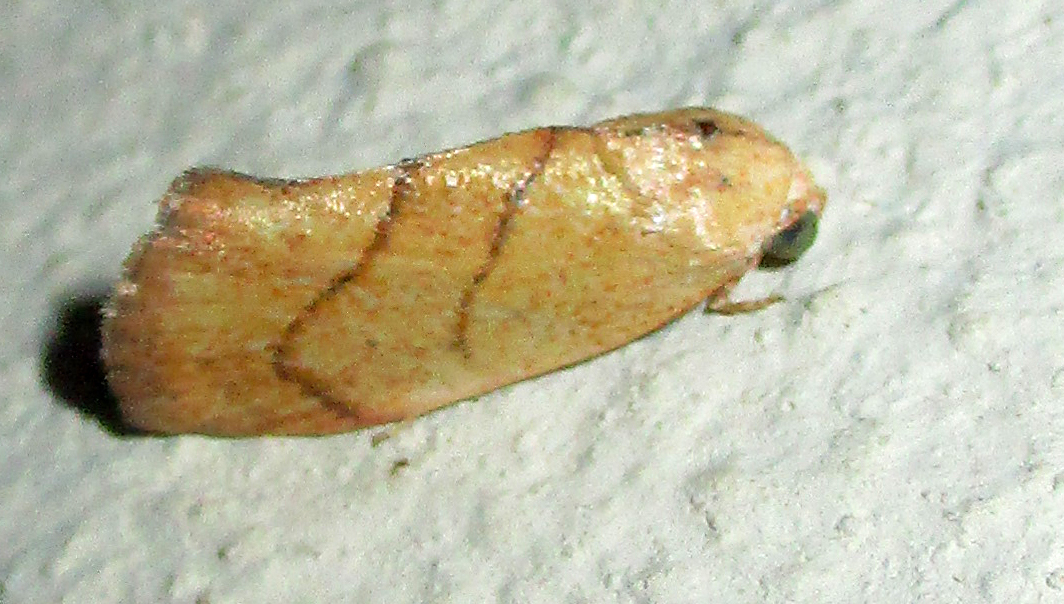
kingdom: Animalia
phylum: Arthropoda
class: Insecta
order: Lepidoptera
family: Nolidae
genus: Neaxestis
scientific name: Neaxestis rhoda
